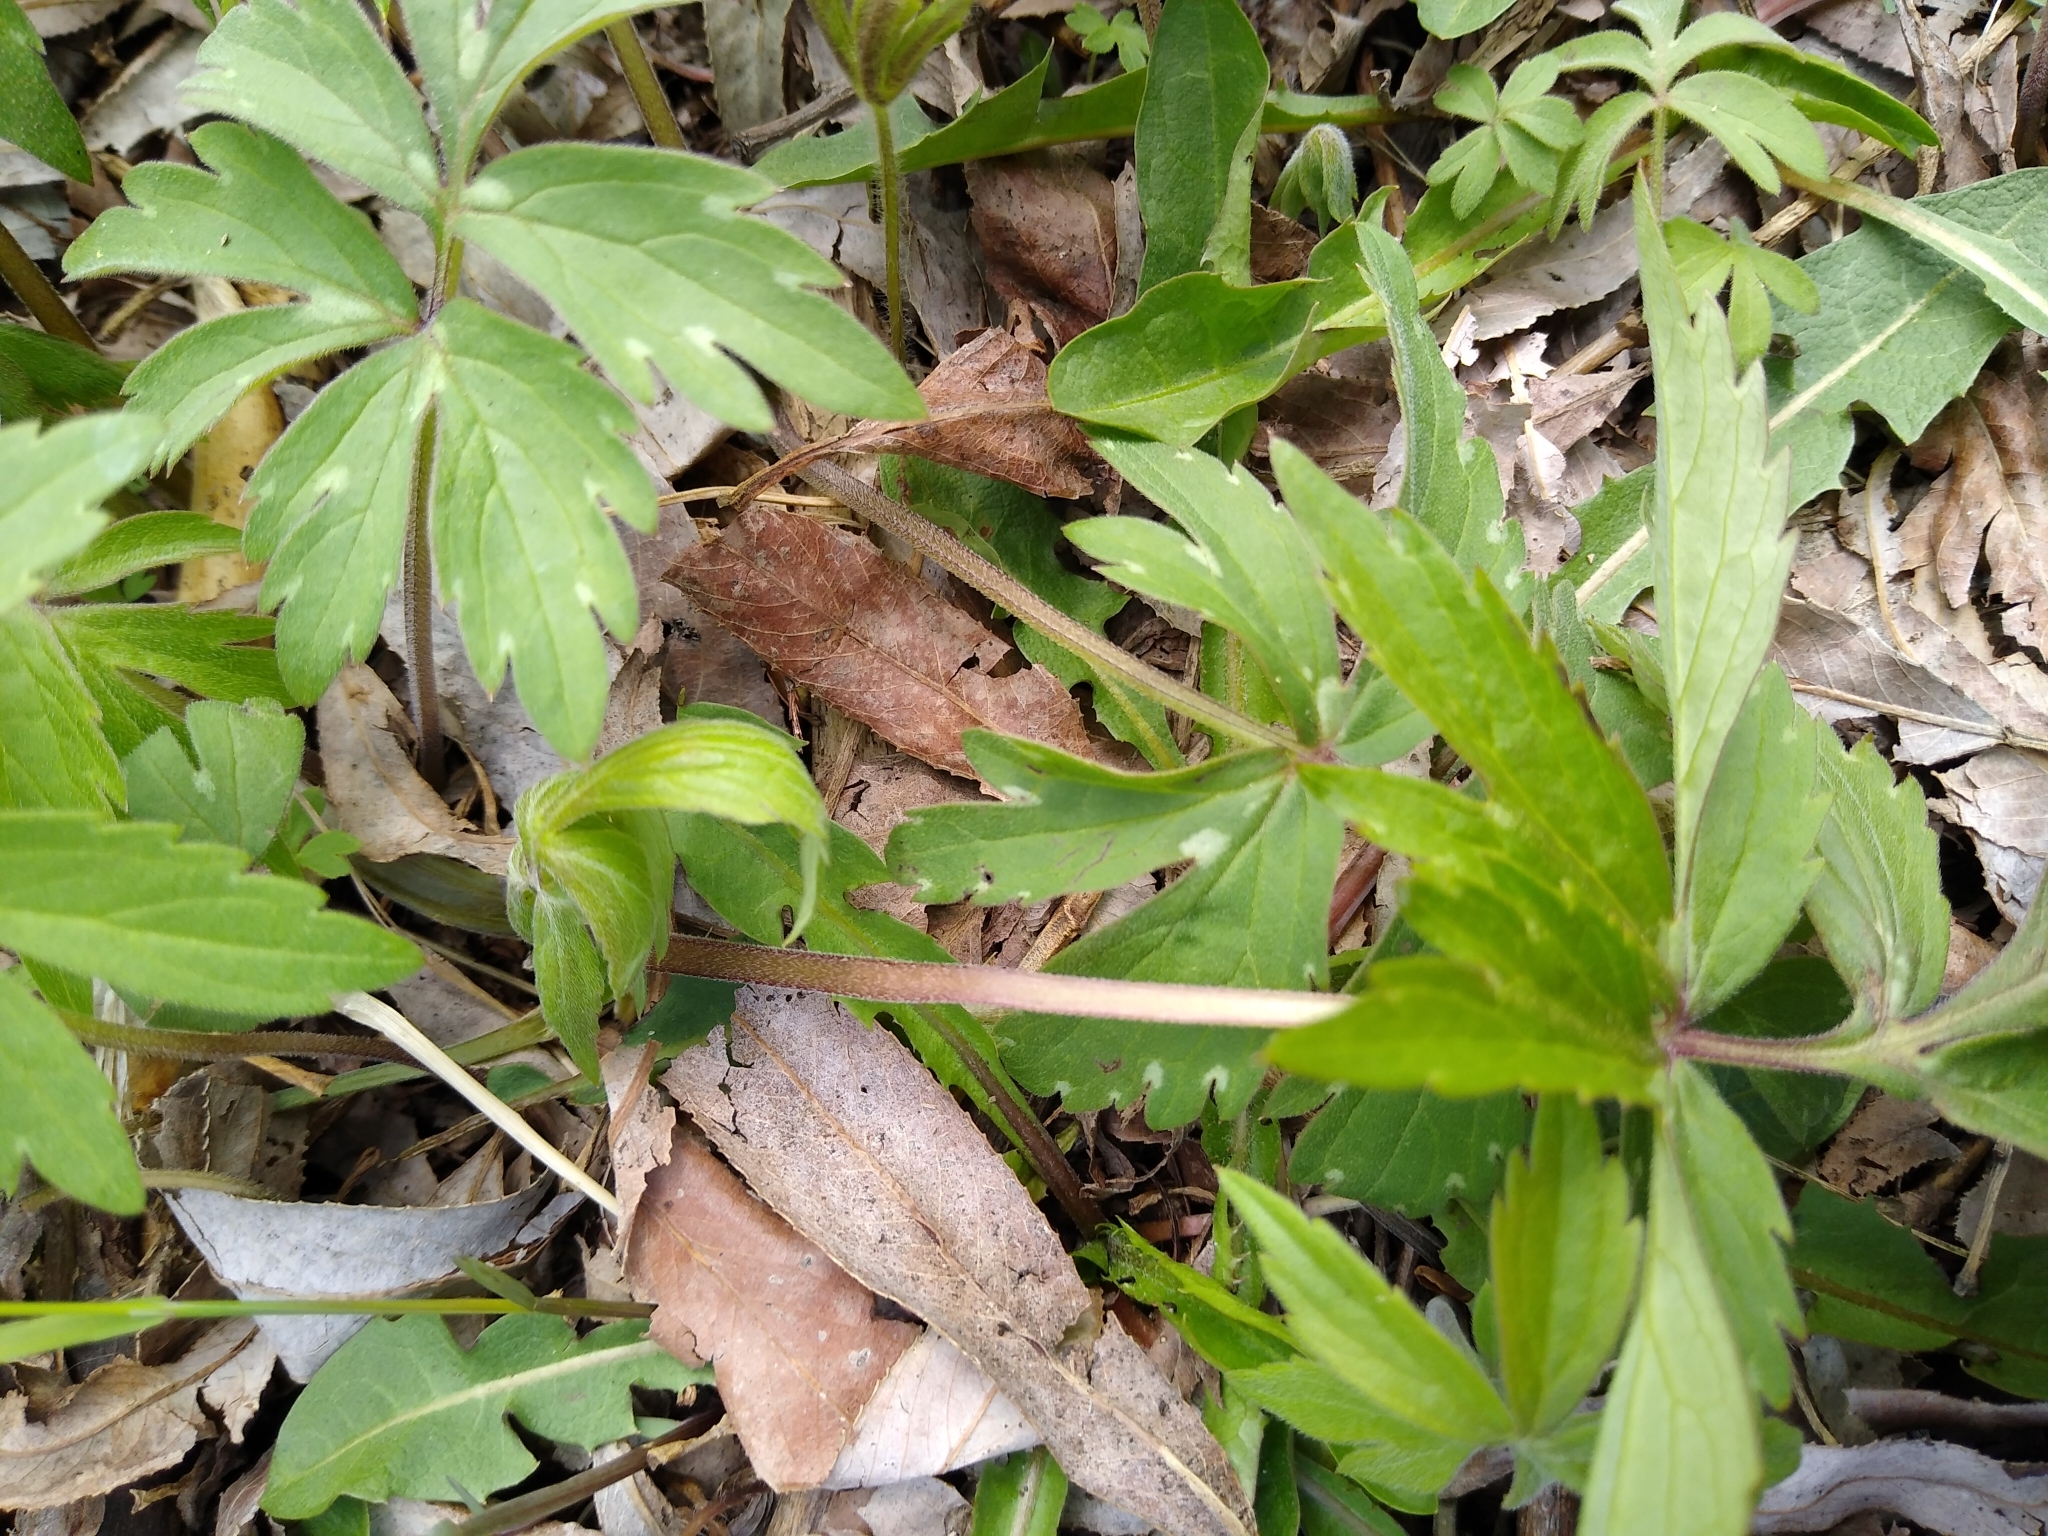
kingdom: Plantae
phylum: Tracheophyta
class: Magnoliopsida
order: Boraginales
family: Hydrophyllaceae
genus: Hydrophyllum
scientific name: Hydrophyllum virginianum
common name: Virginia waterleaf
